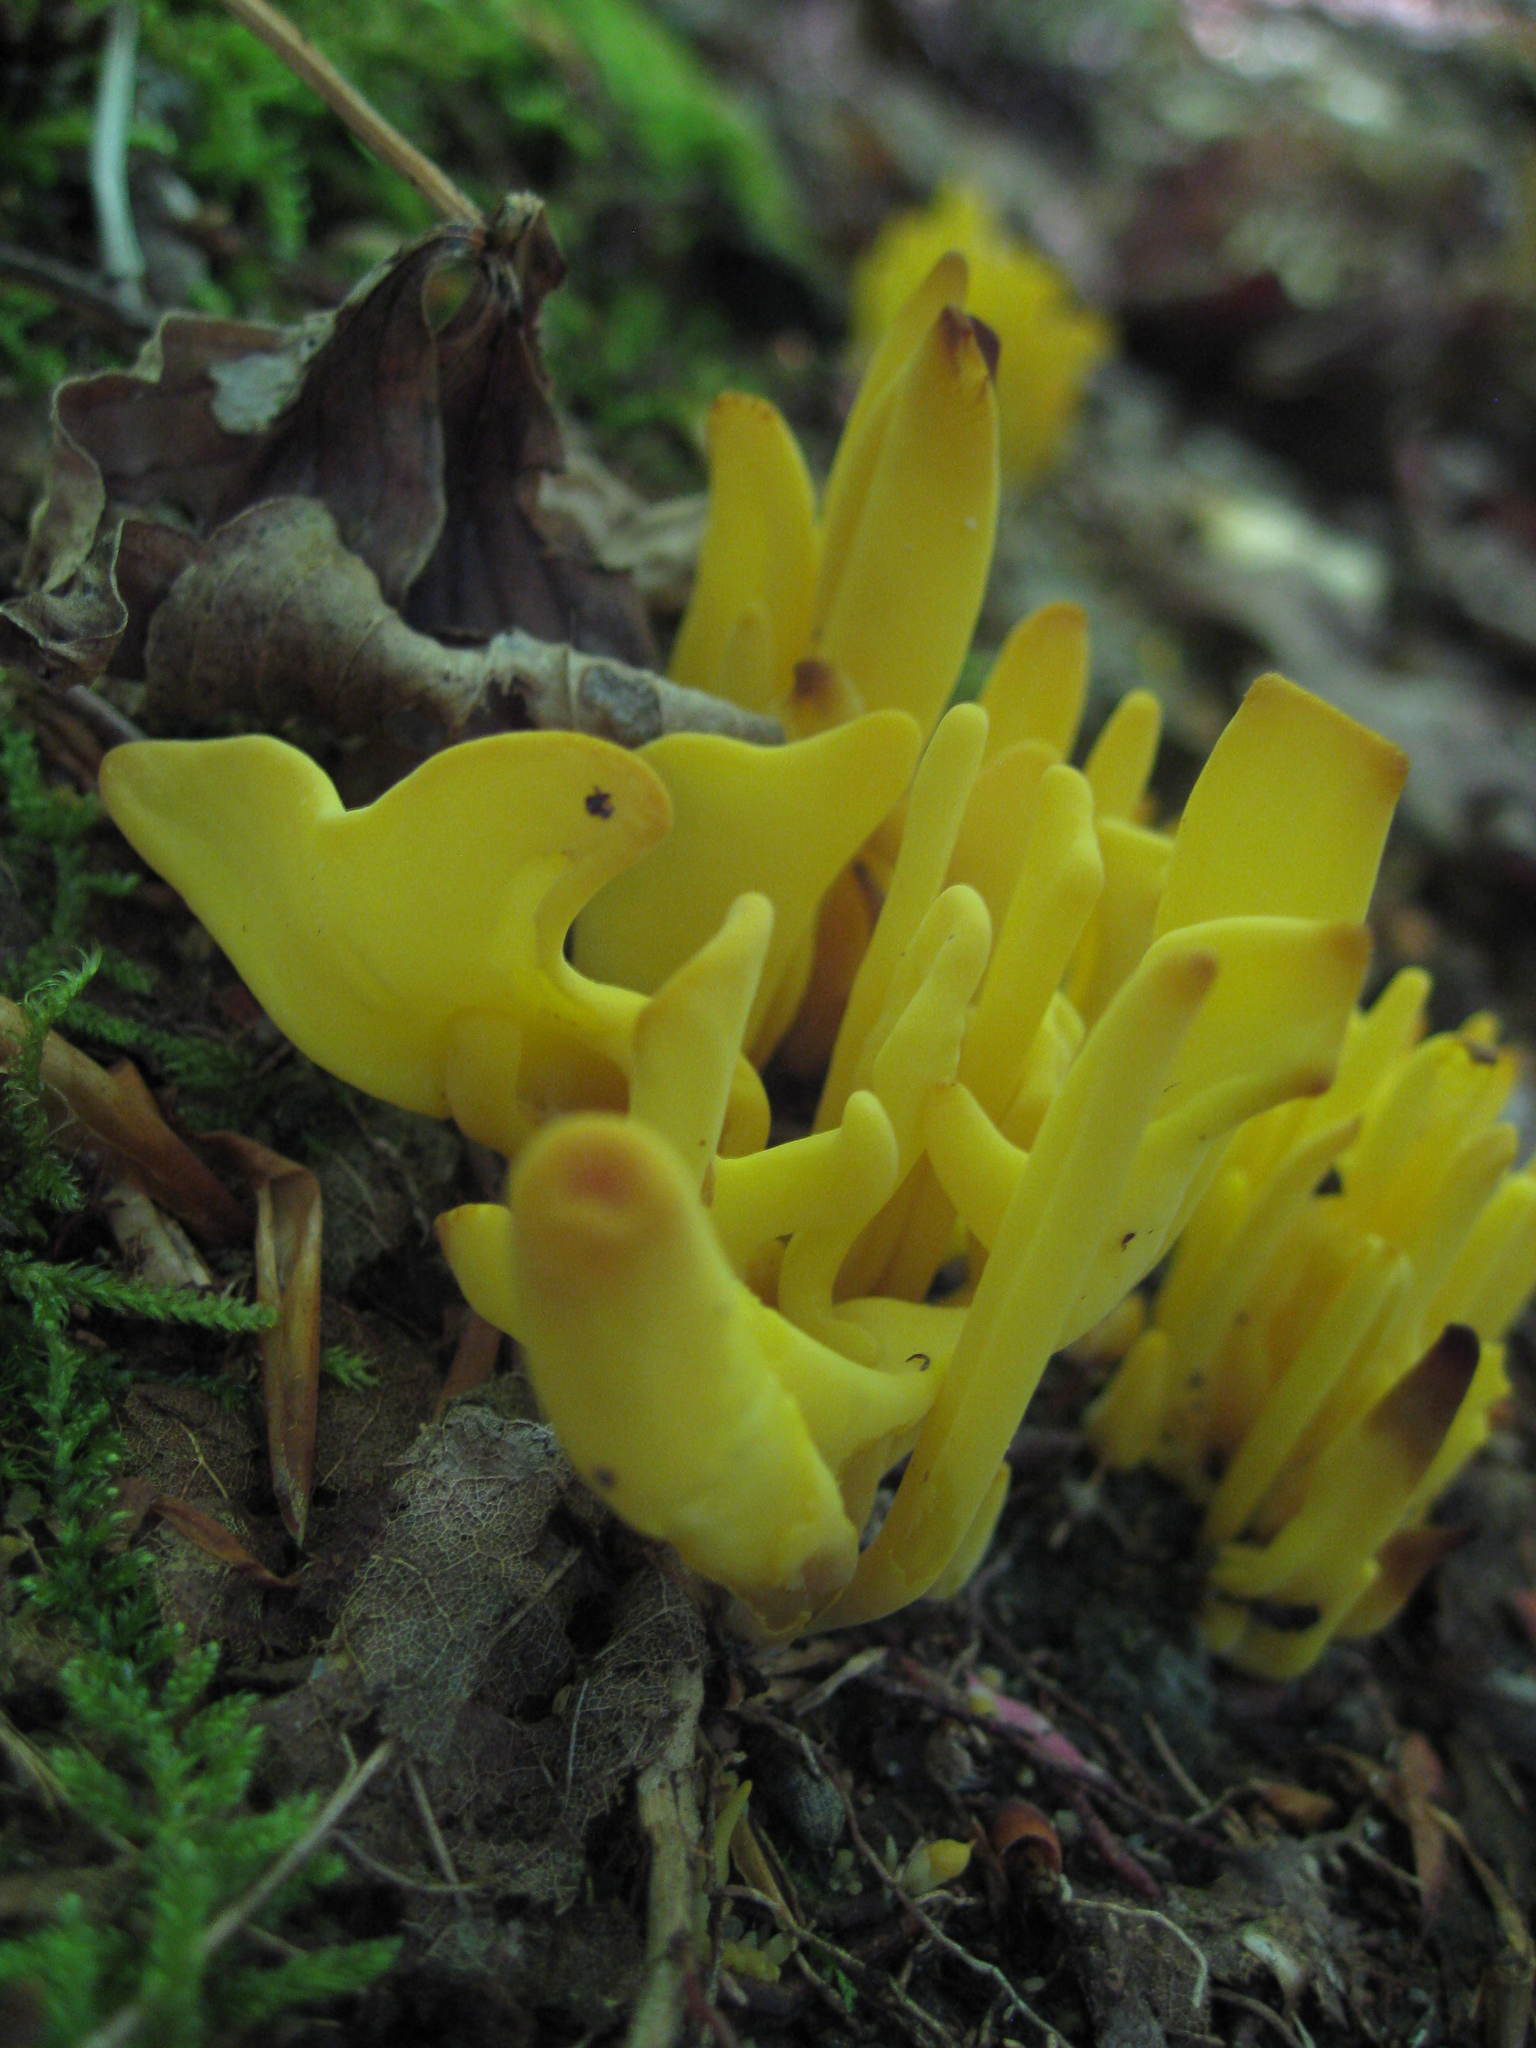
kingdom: Fungi
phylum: Basidiomycota
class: Agaricomycetes
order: Agaricales
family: Clavariaceae
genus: Clavulinopsis
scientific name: Clavulinopsis fusiformis
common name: Golden spindles
